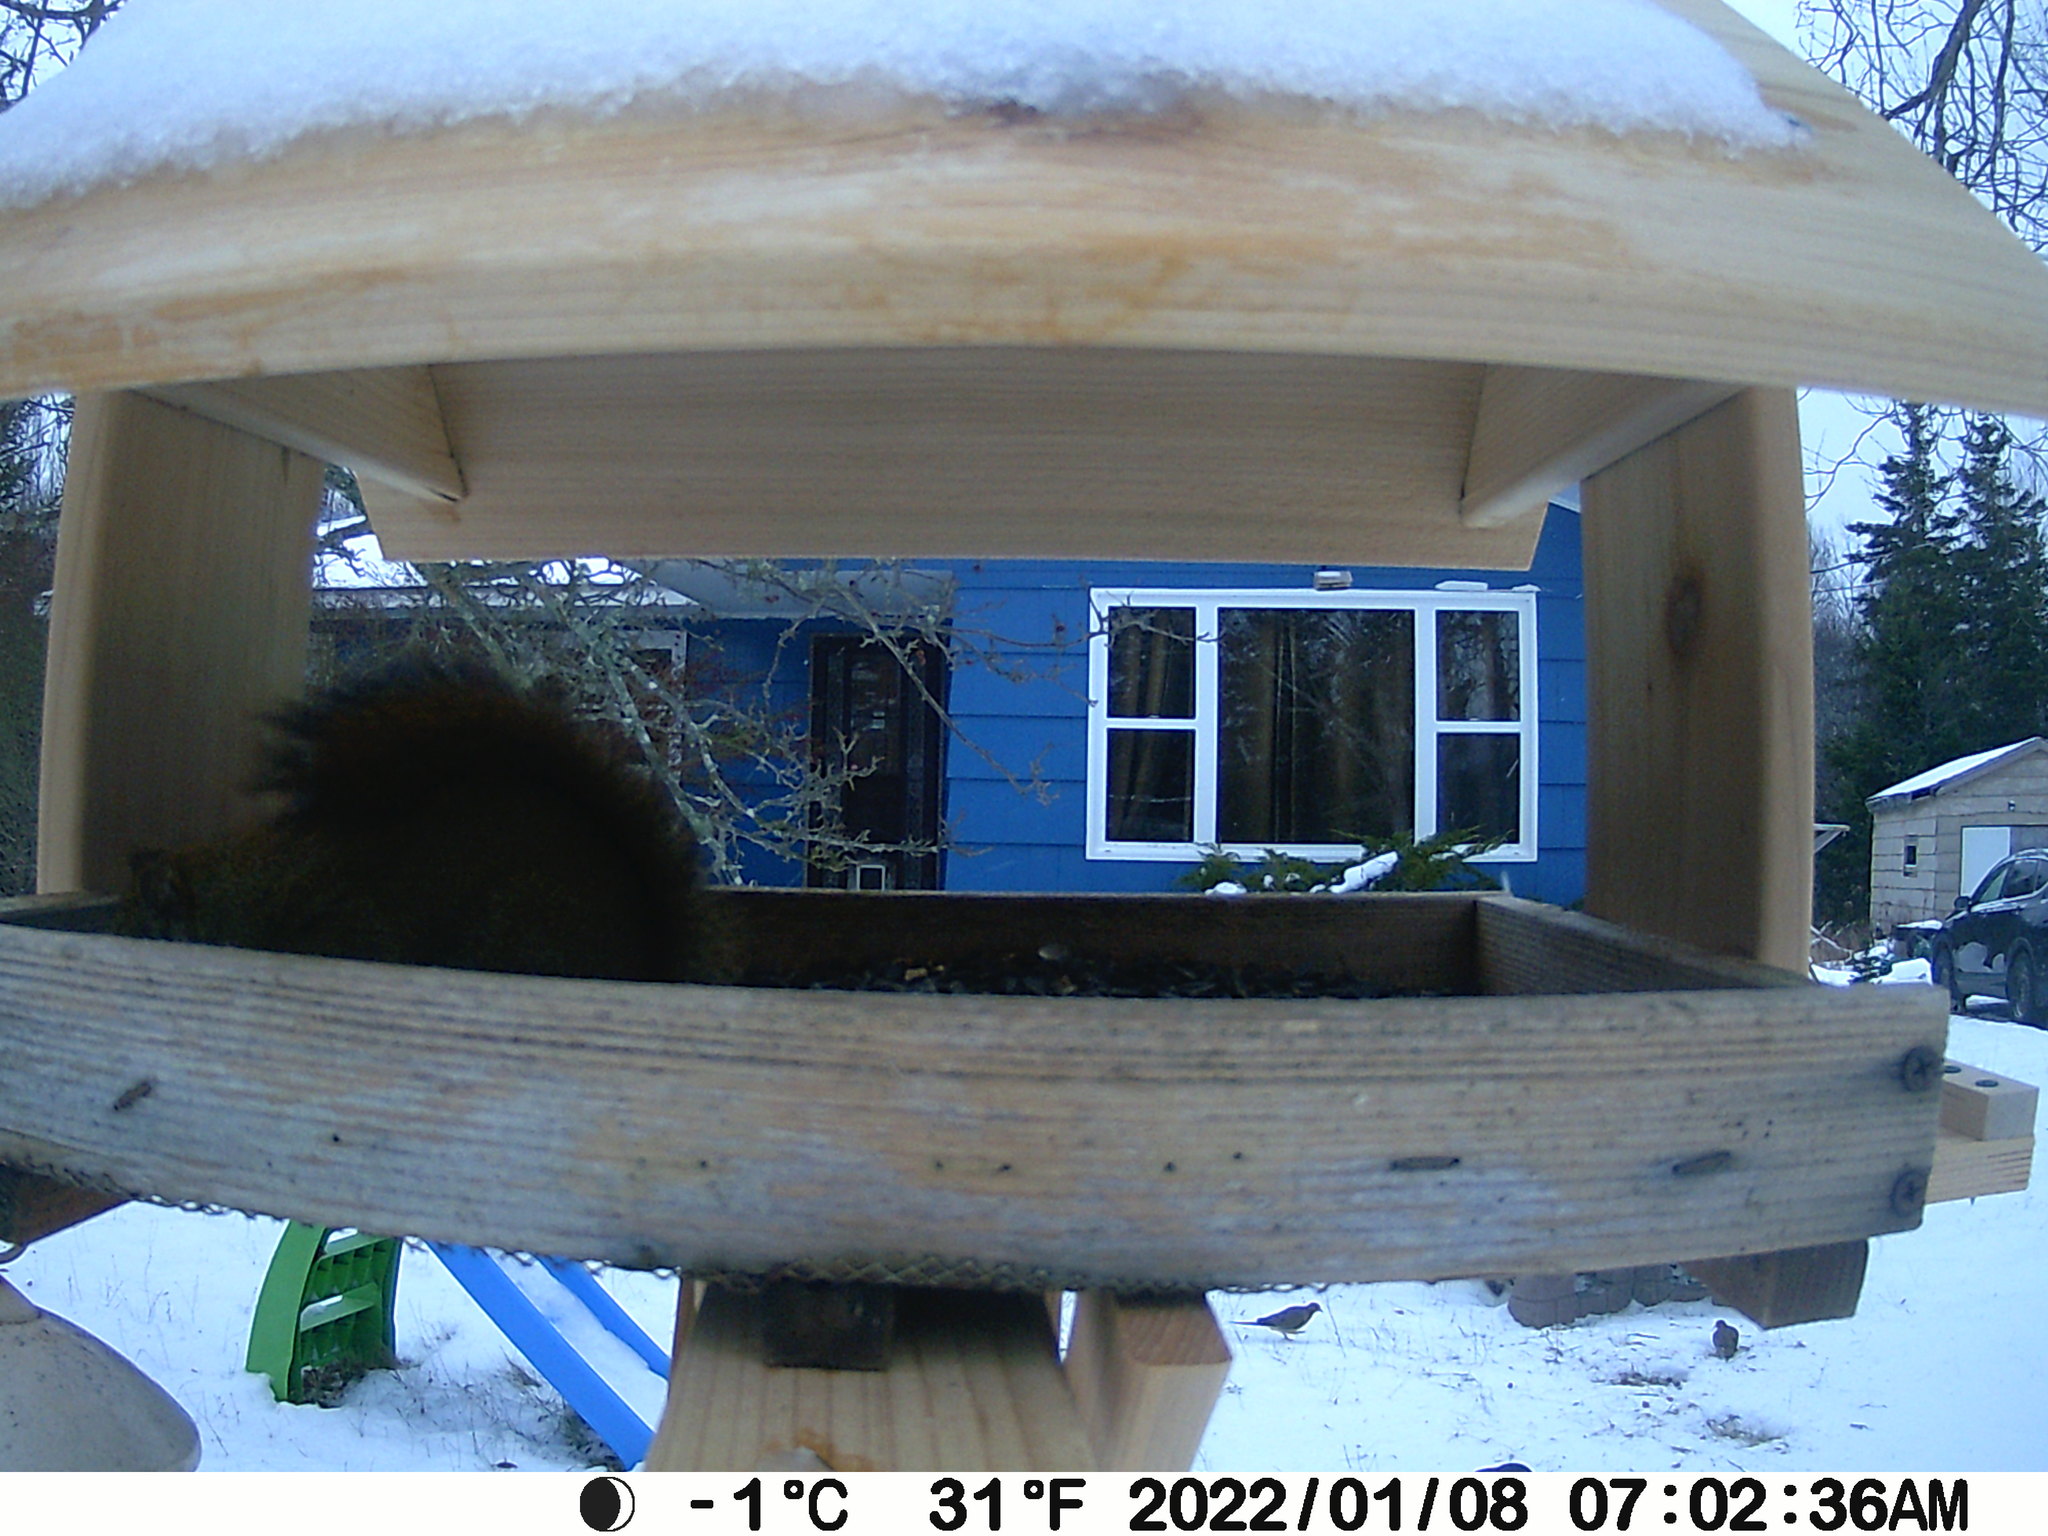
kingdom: Animalia
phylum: Chordata
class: Aves
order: Columbiformes
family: Columbidae
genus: Zenaida
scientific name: Zenaida macroura
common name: Mourning dove
